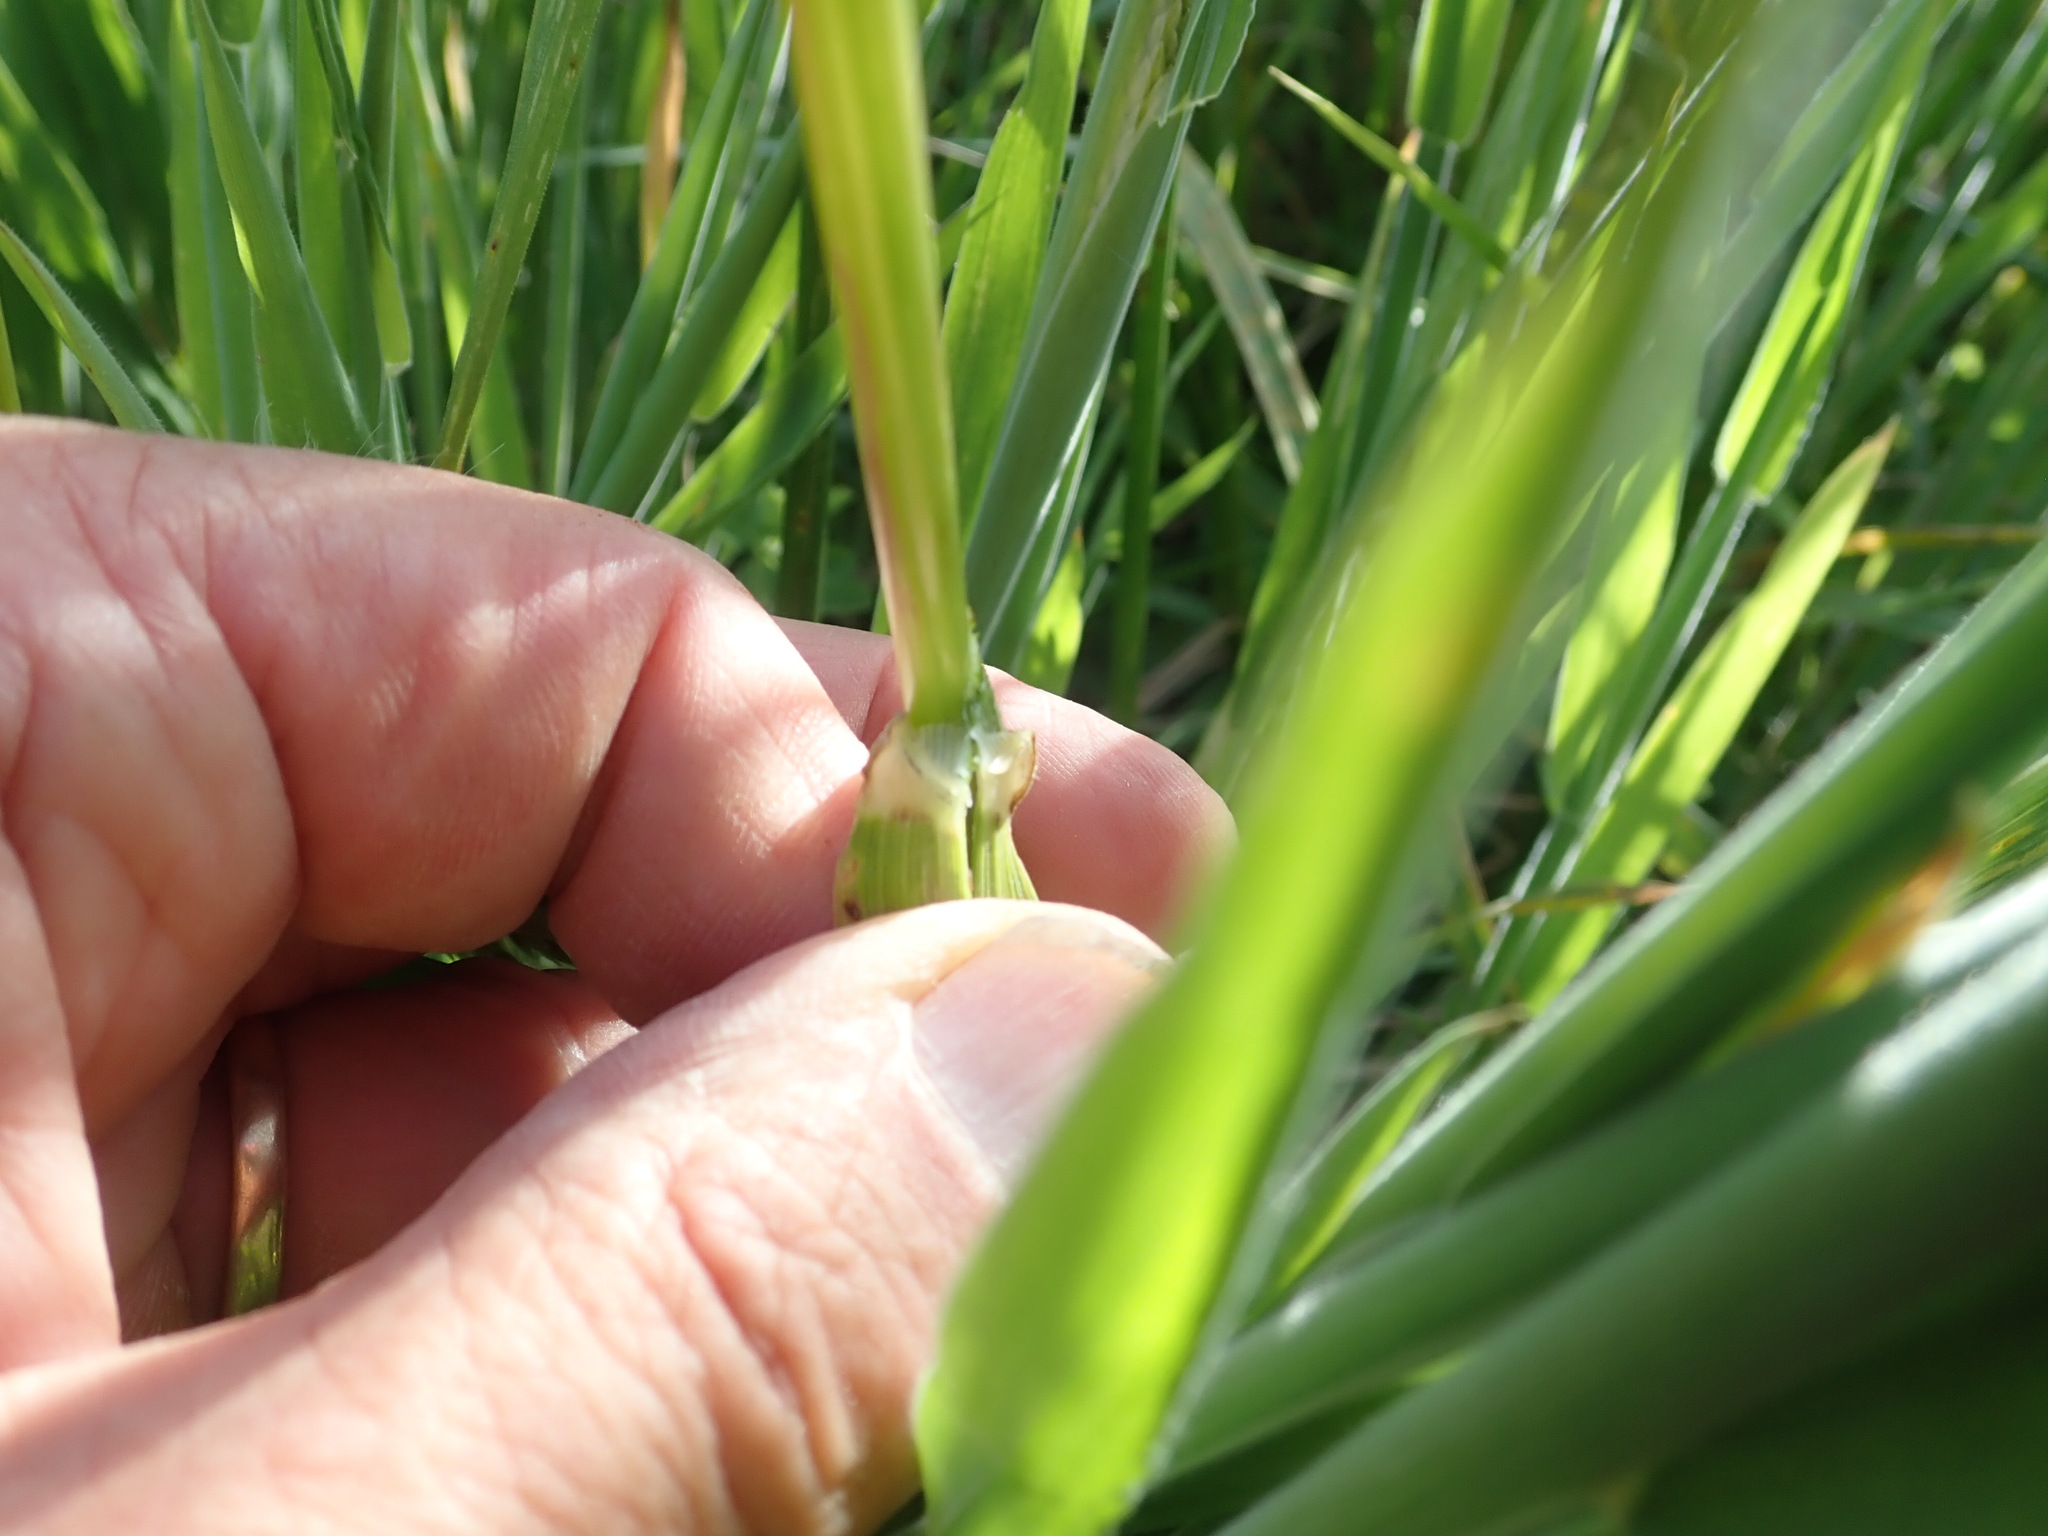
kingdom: Plantae
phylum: Tracheophyta
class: Liliopsida
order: Poales
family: Poaceae
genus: Lolium
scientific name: Lolium arundinaceum
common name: Reed fescue
